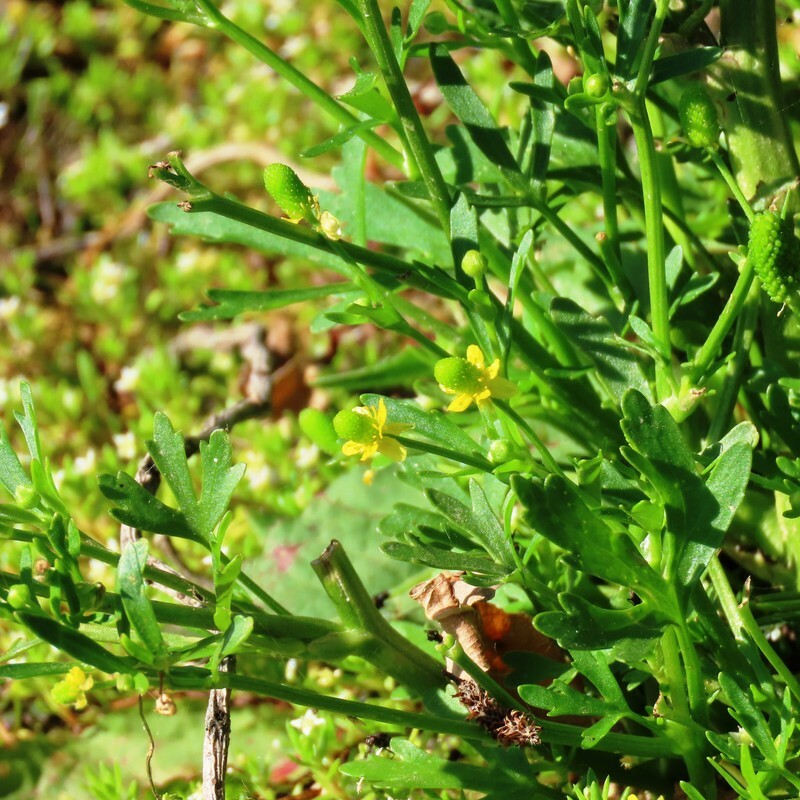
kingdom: Plantae
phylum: Tracheophyta
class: Magnoliopsida
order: Ranunculales
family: Ranunculaceae
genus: Ranunculus
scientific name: Ranunculus sceleratus
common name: Celery-leaved buttercup
